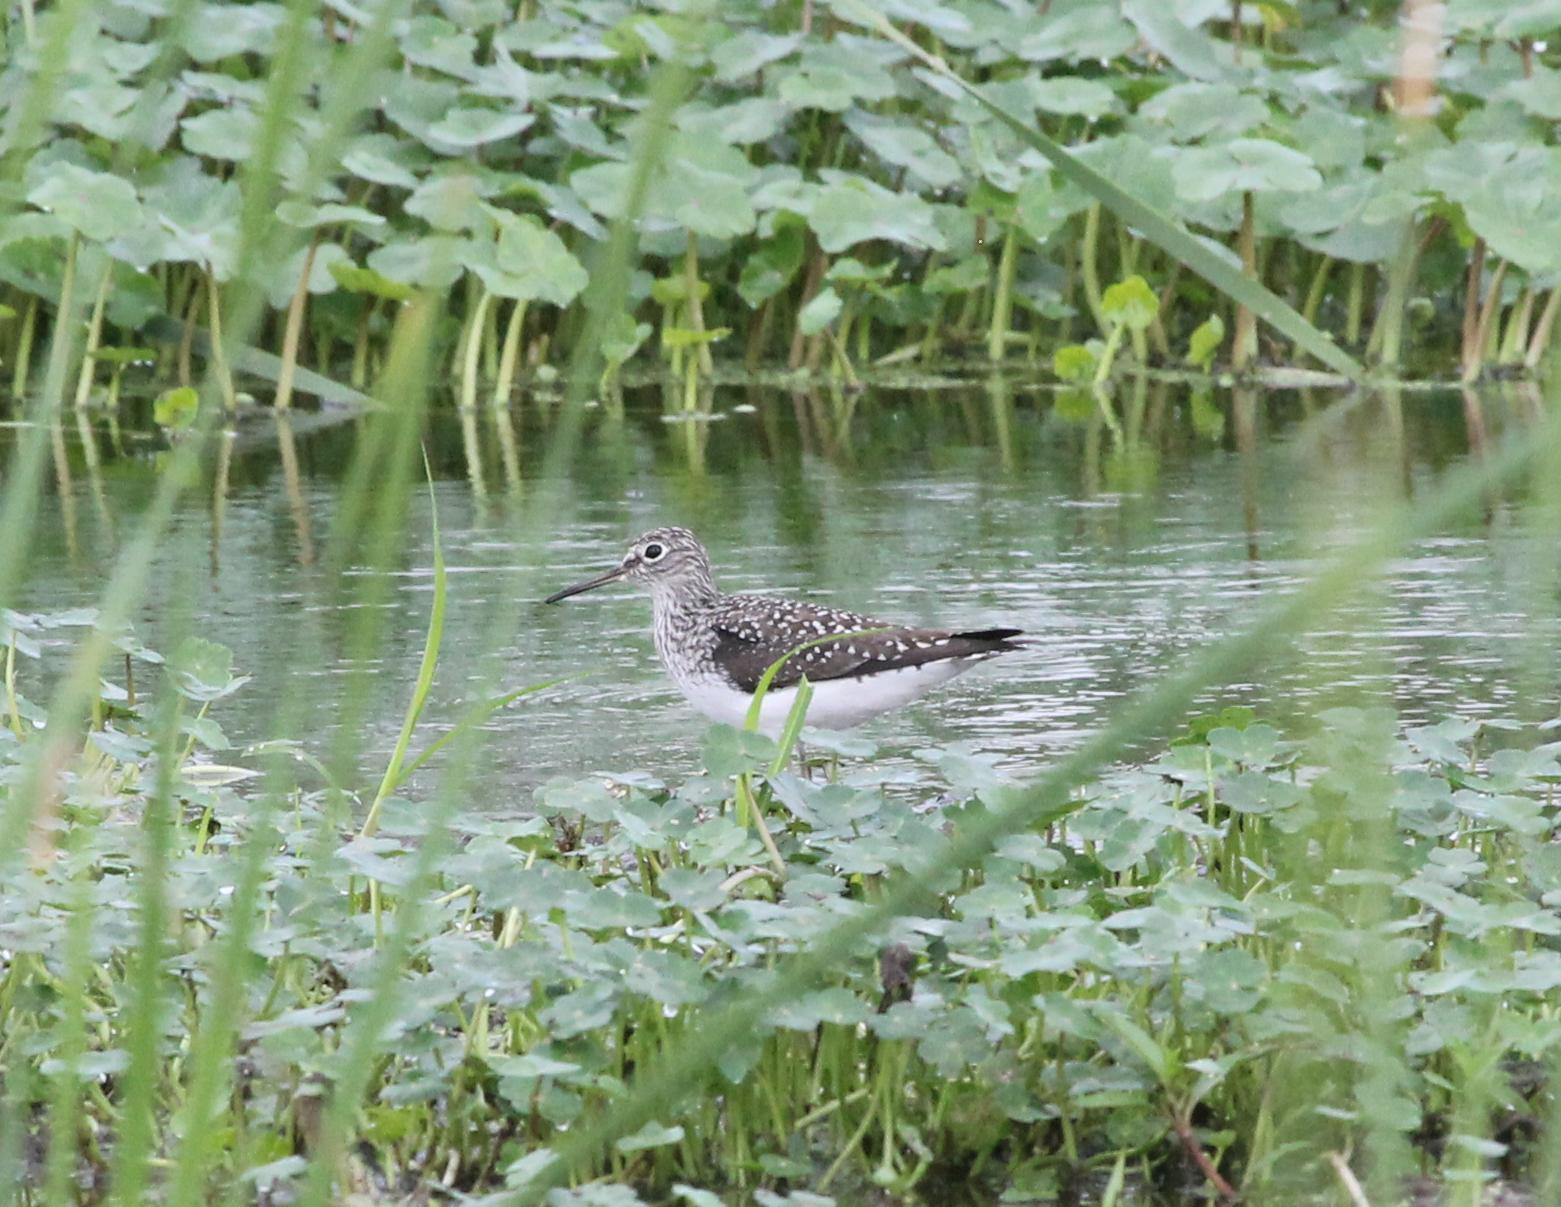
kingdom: Animalia
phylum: Chordata
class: Aves
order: Charadriiformes
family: Scolopacidae
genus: Tringa
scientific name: Tringa solitaria
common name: Solitary sandpiper
